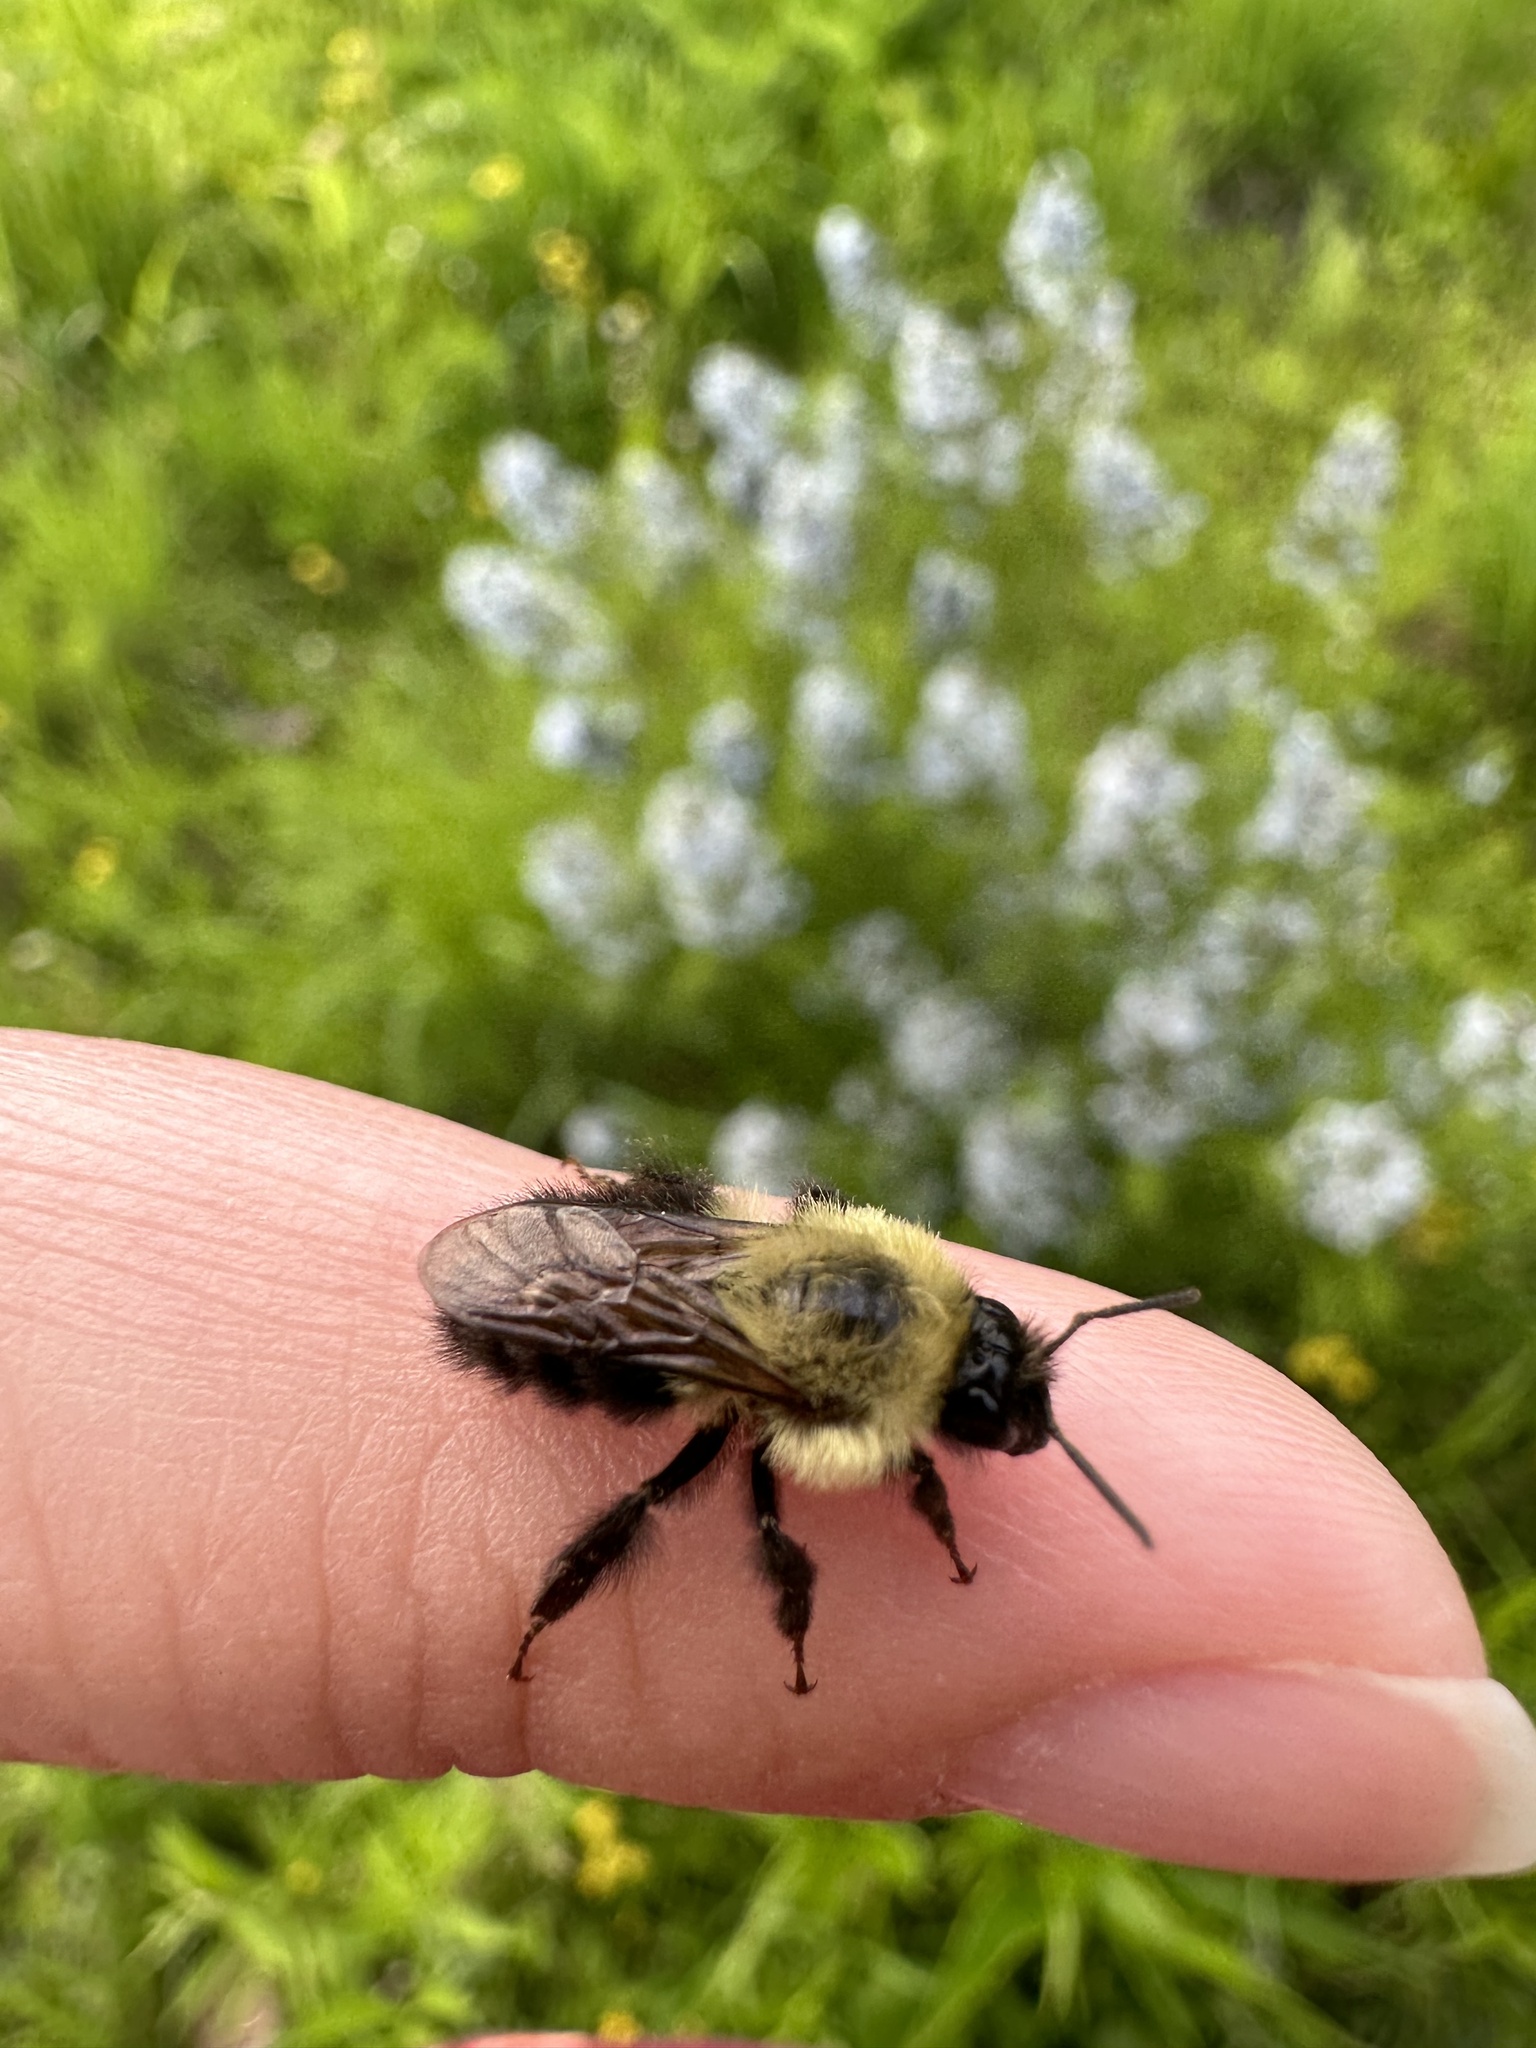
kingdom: Animalia
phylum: Arthropoda
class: Insecta
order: Hymenoptera
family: Apidae
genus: Bombus
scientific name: Bombus bimaculatus
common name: Two-spotted bumble bee
